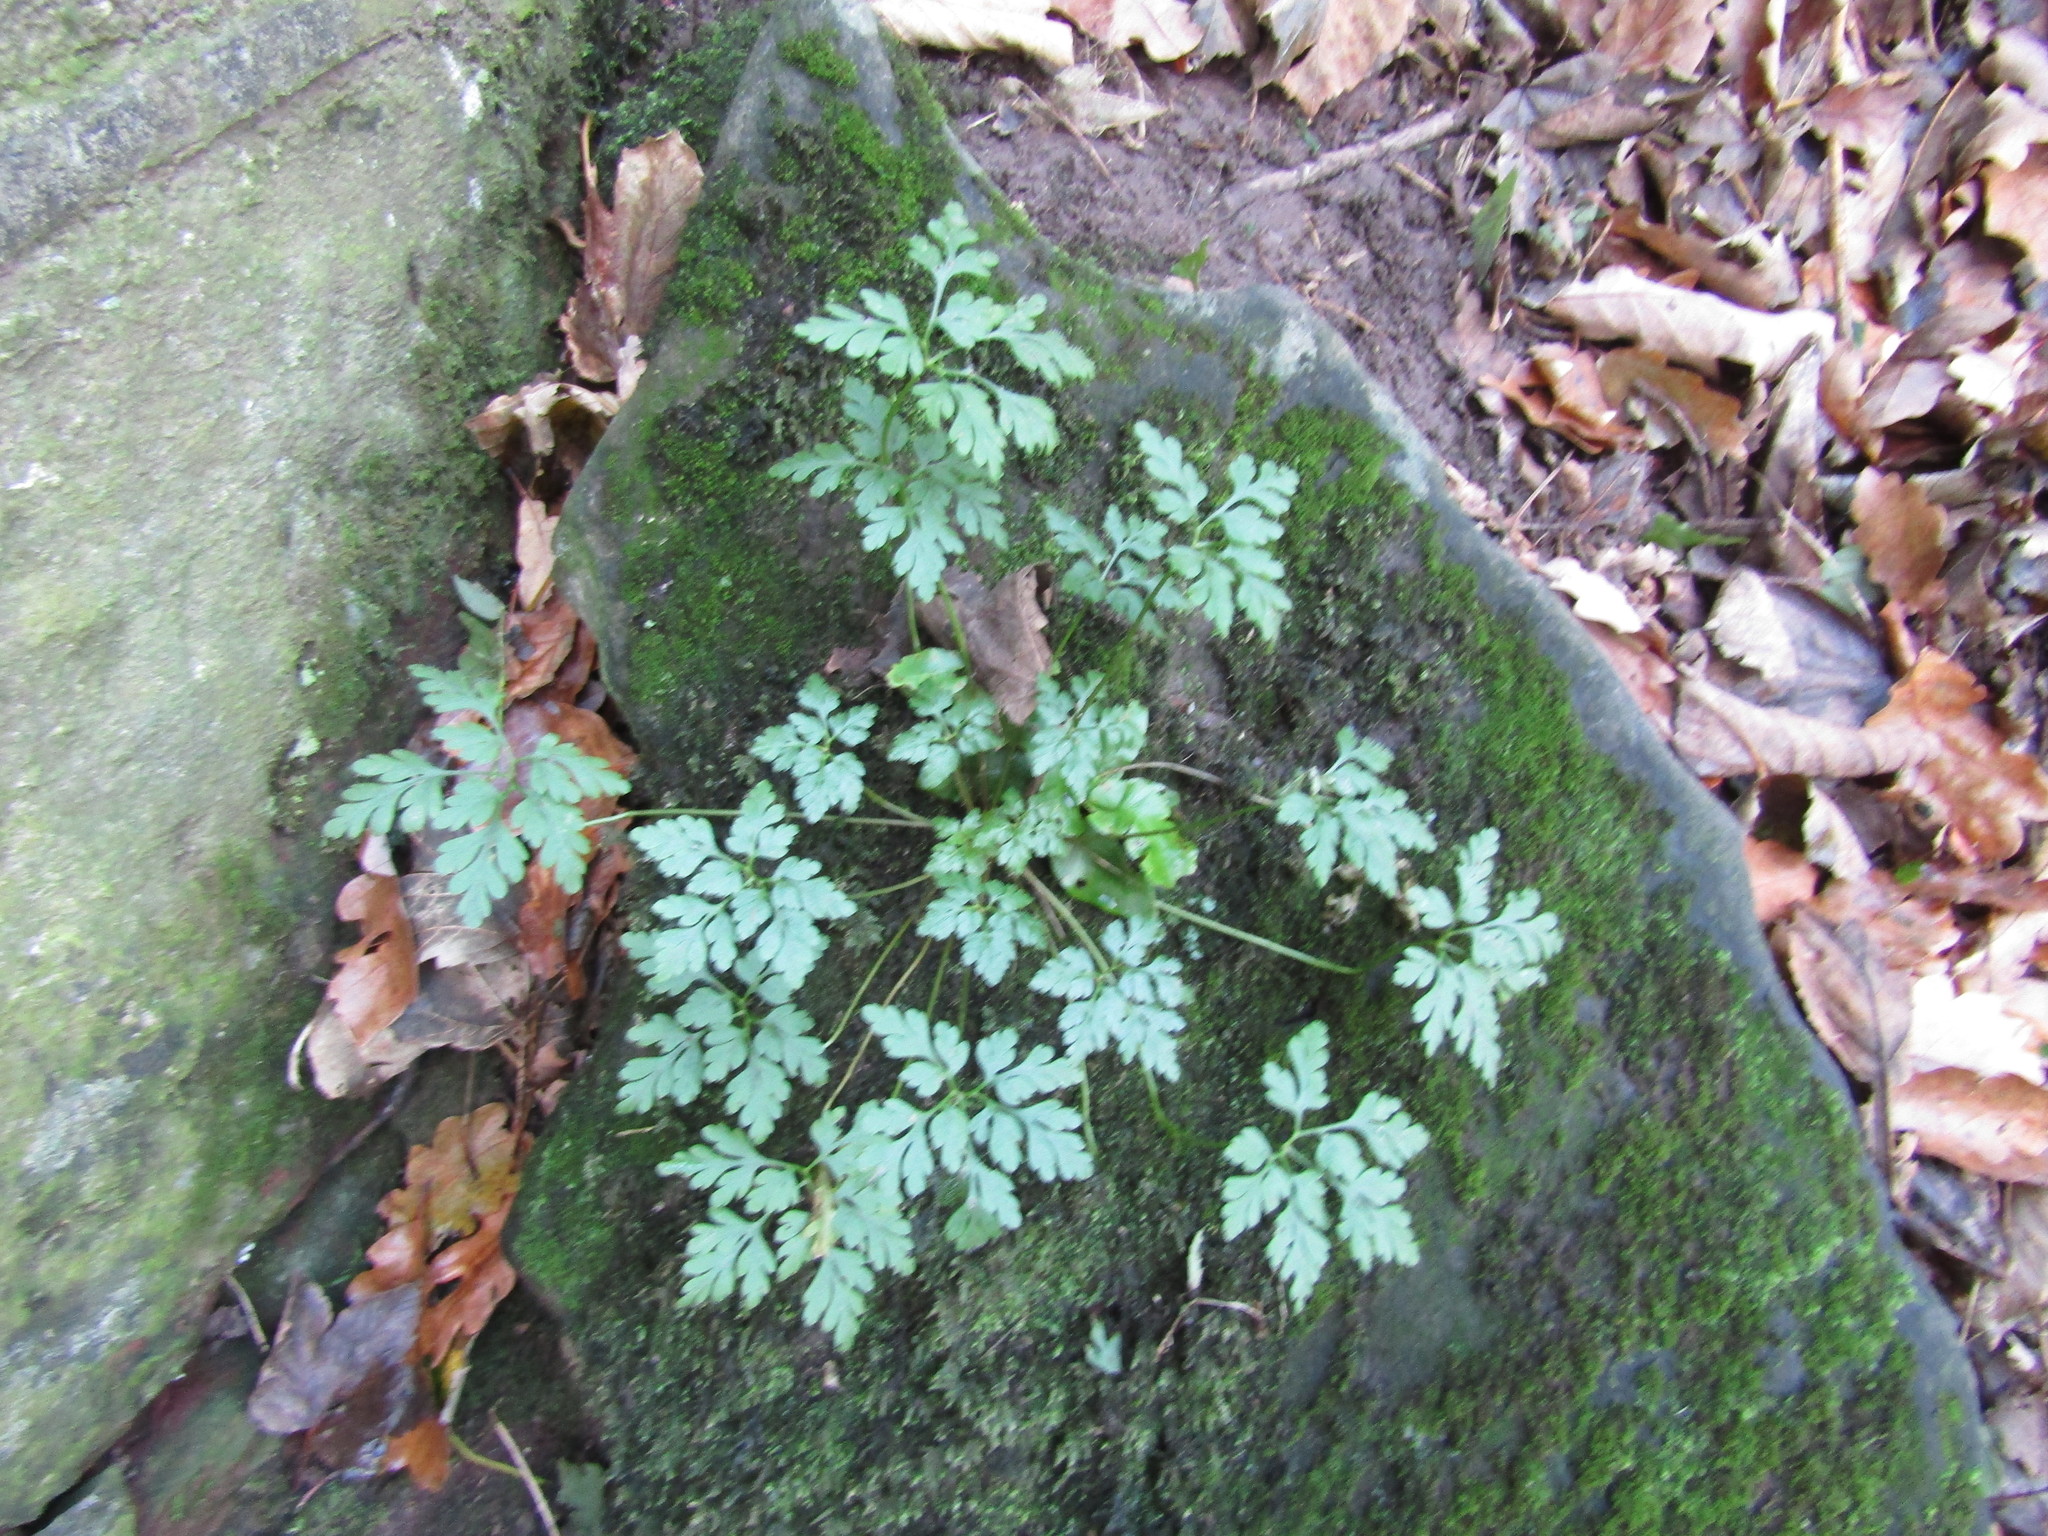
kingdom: Plantae
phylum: Tracheophyta
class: Magnoliopsida
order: Geraniales
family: Geraniaceae
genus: Geranium
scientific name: Geranium robertianum
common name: Herb-robert
